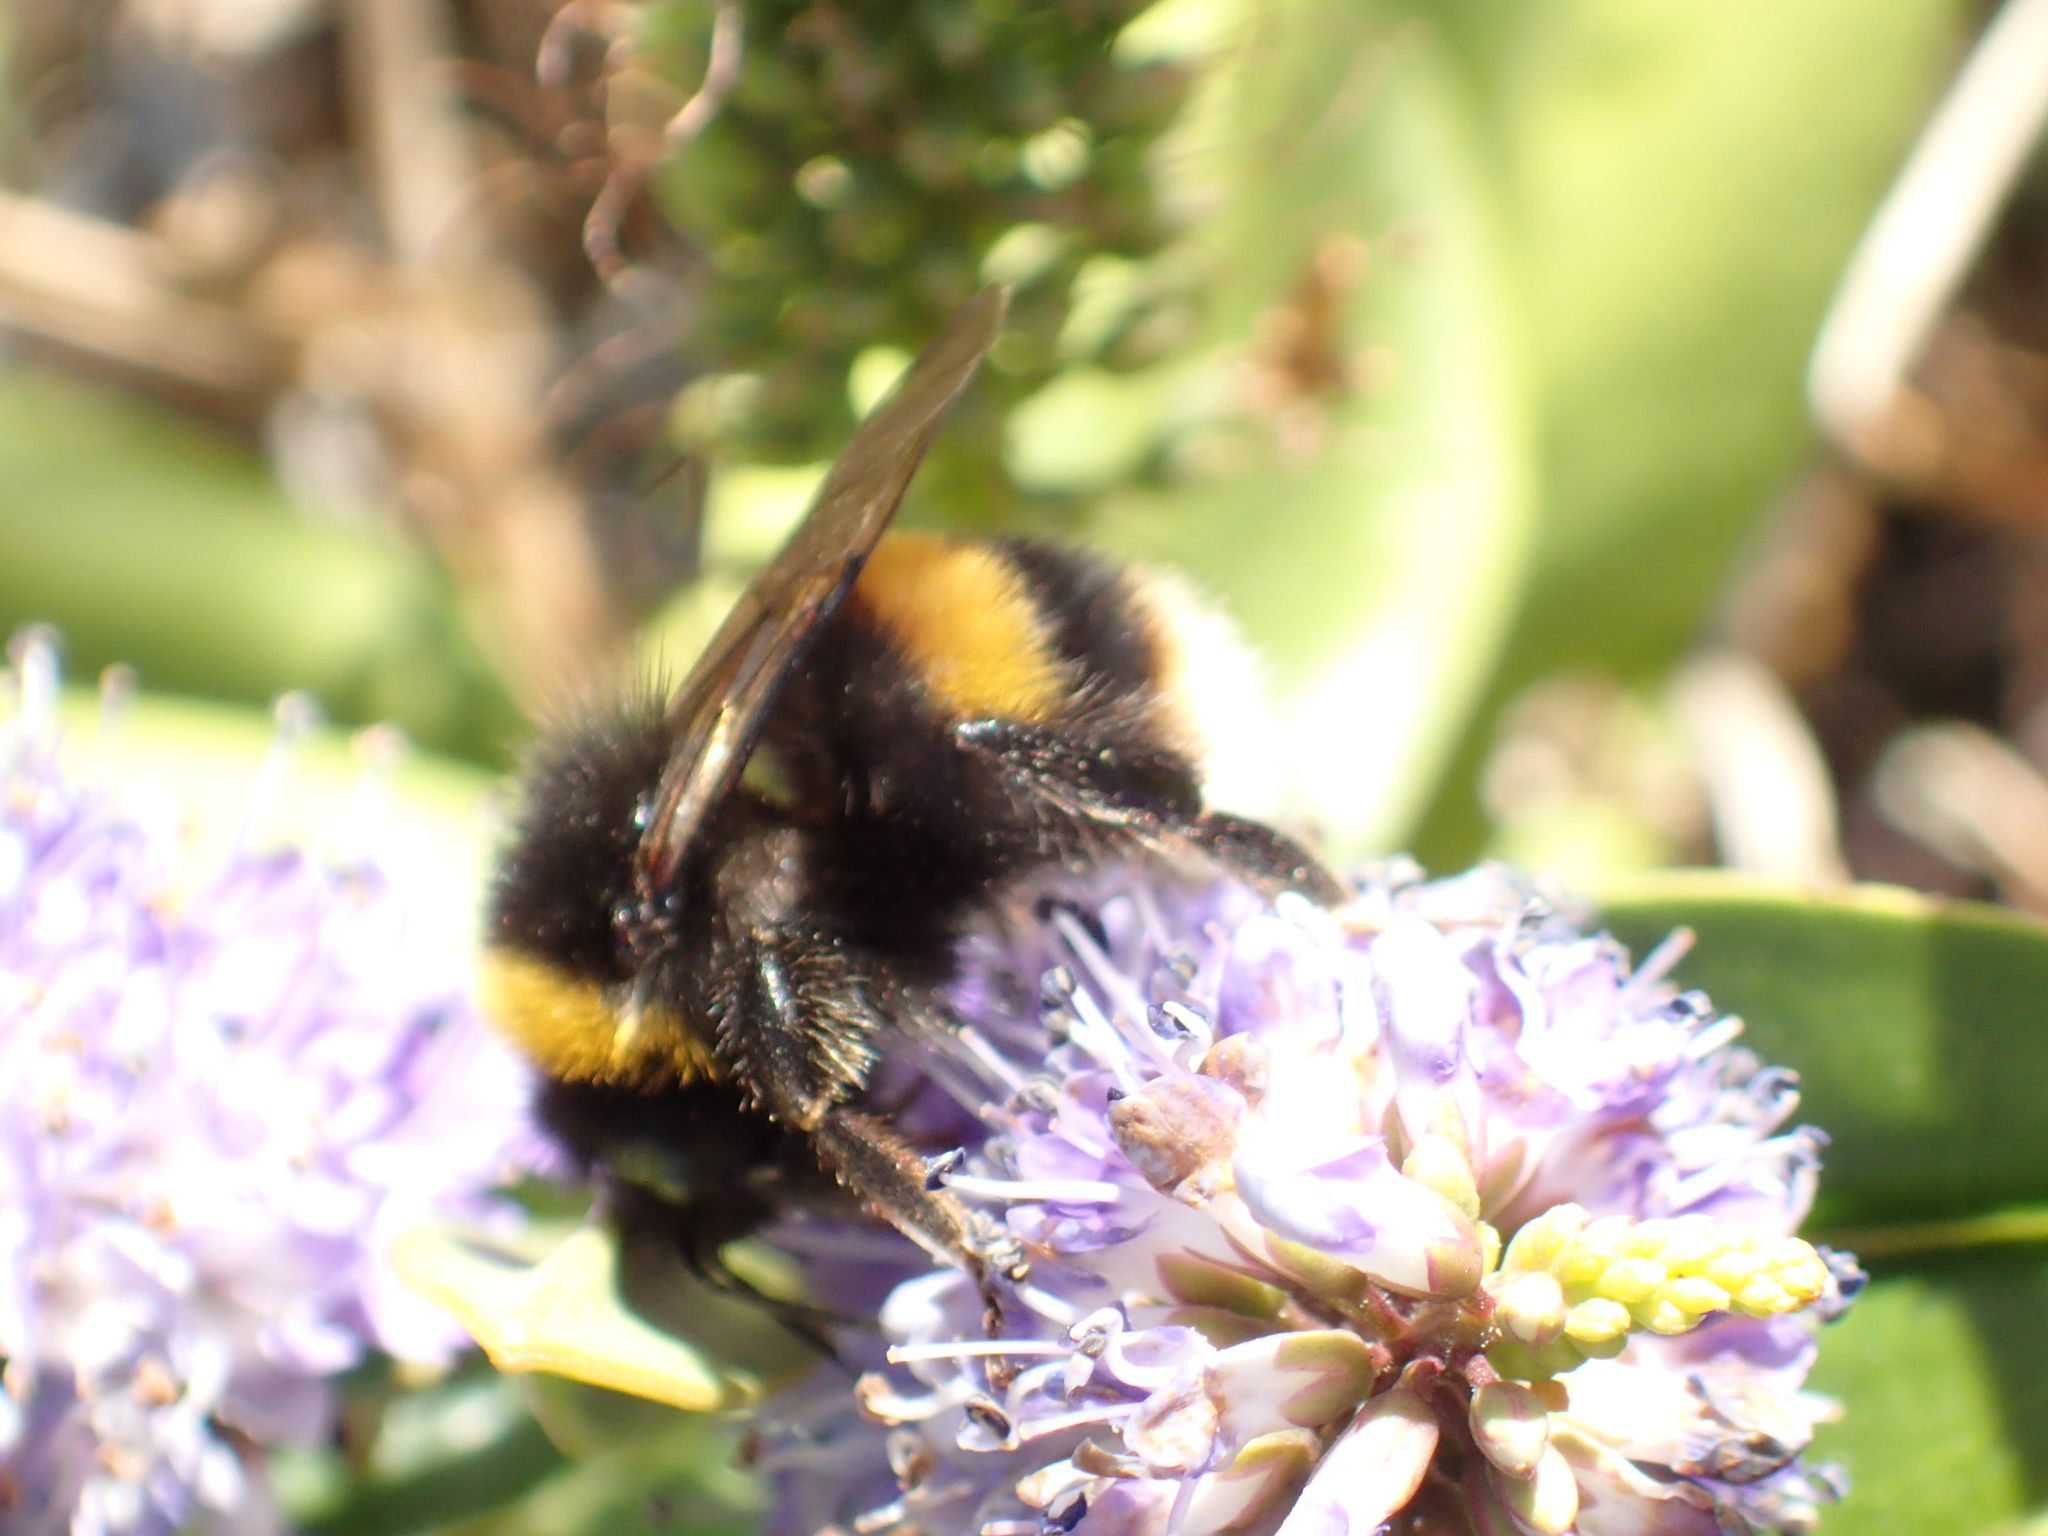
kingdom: Animalia
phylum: Arthropoda
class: Insecta
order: Hymenoptera
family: Apidae
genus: Bombus
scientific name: Bombus terrestris
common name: Buff-tailed bumblebee
